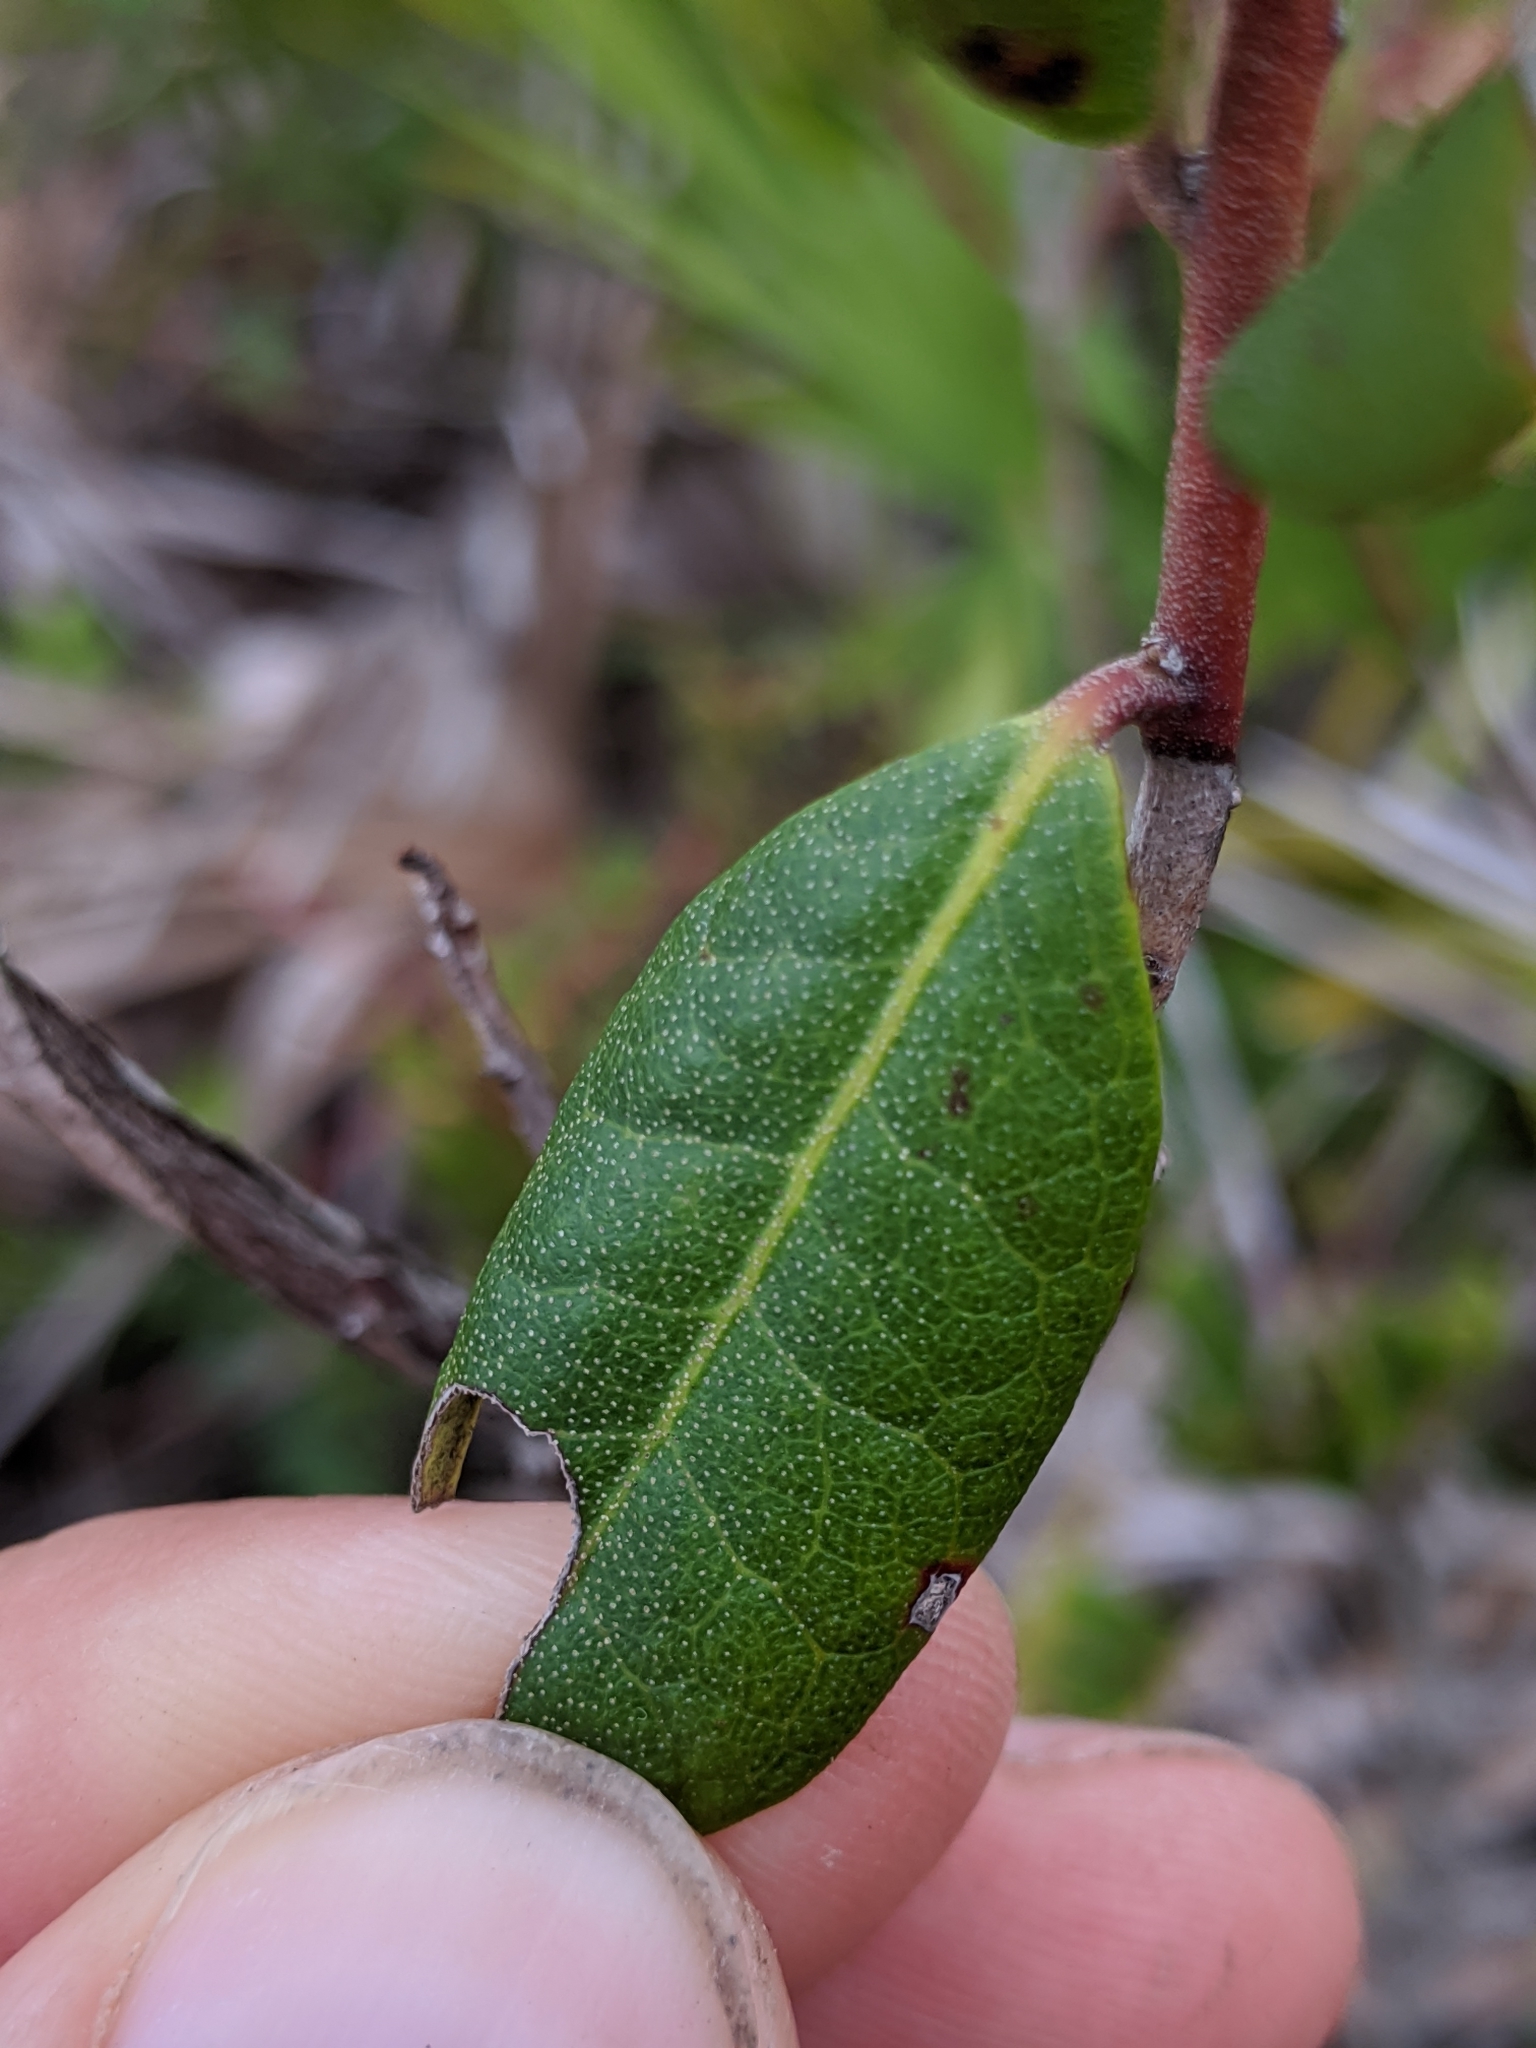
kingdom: Plantae
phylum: Tracheophyta
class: Magnoliopsida
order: Ericales
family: Ericaceae
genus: Rhododendron
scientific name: Rhododendron minus
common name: Piedmont rhododendron
